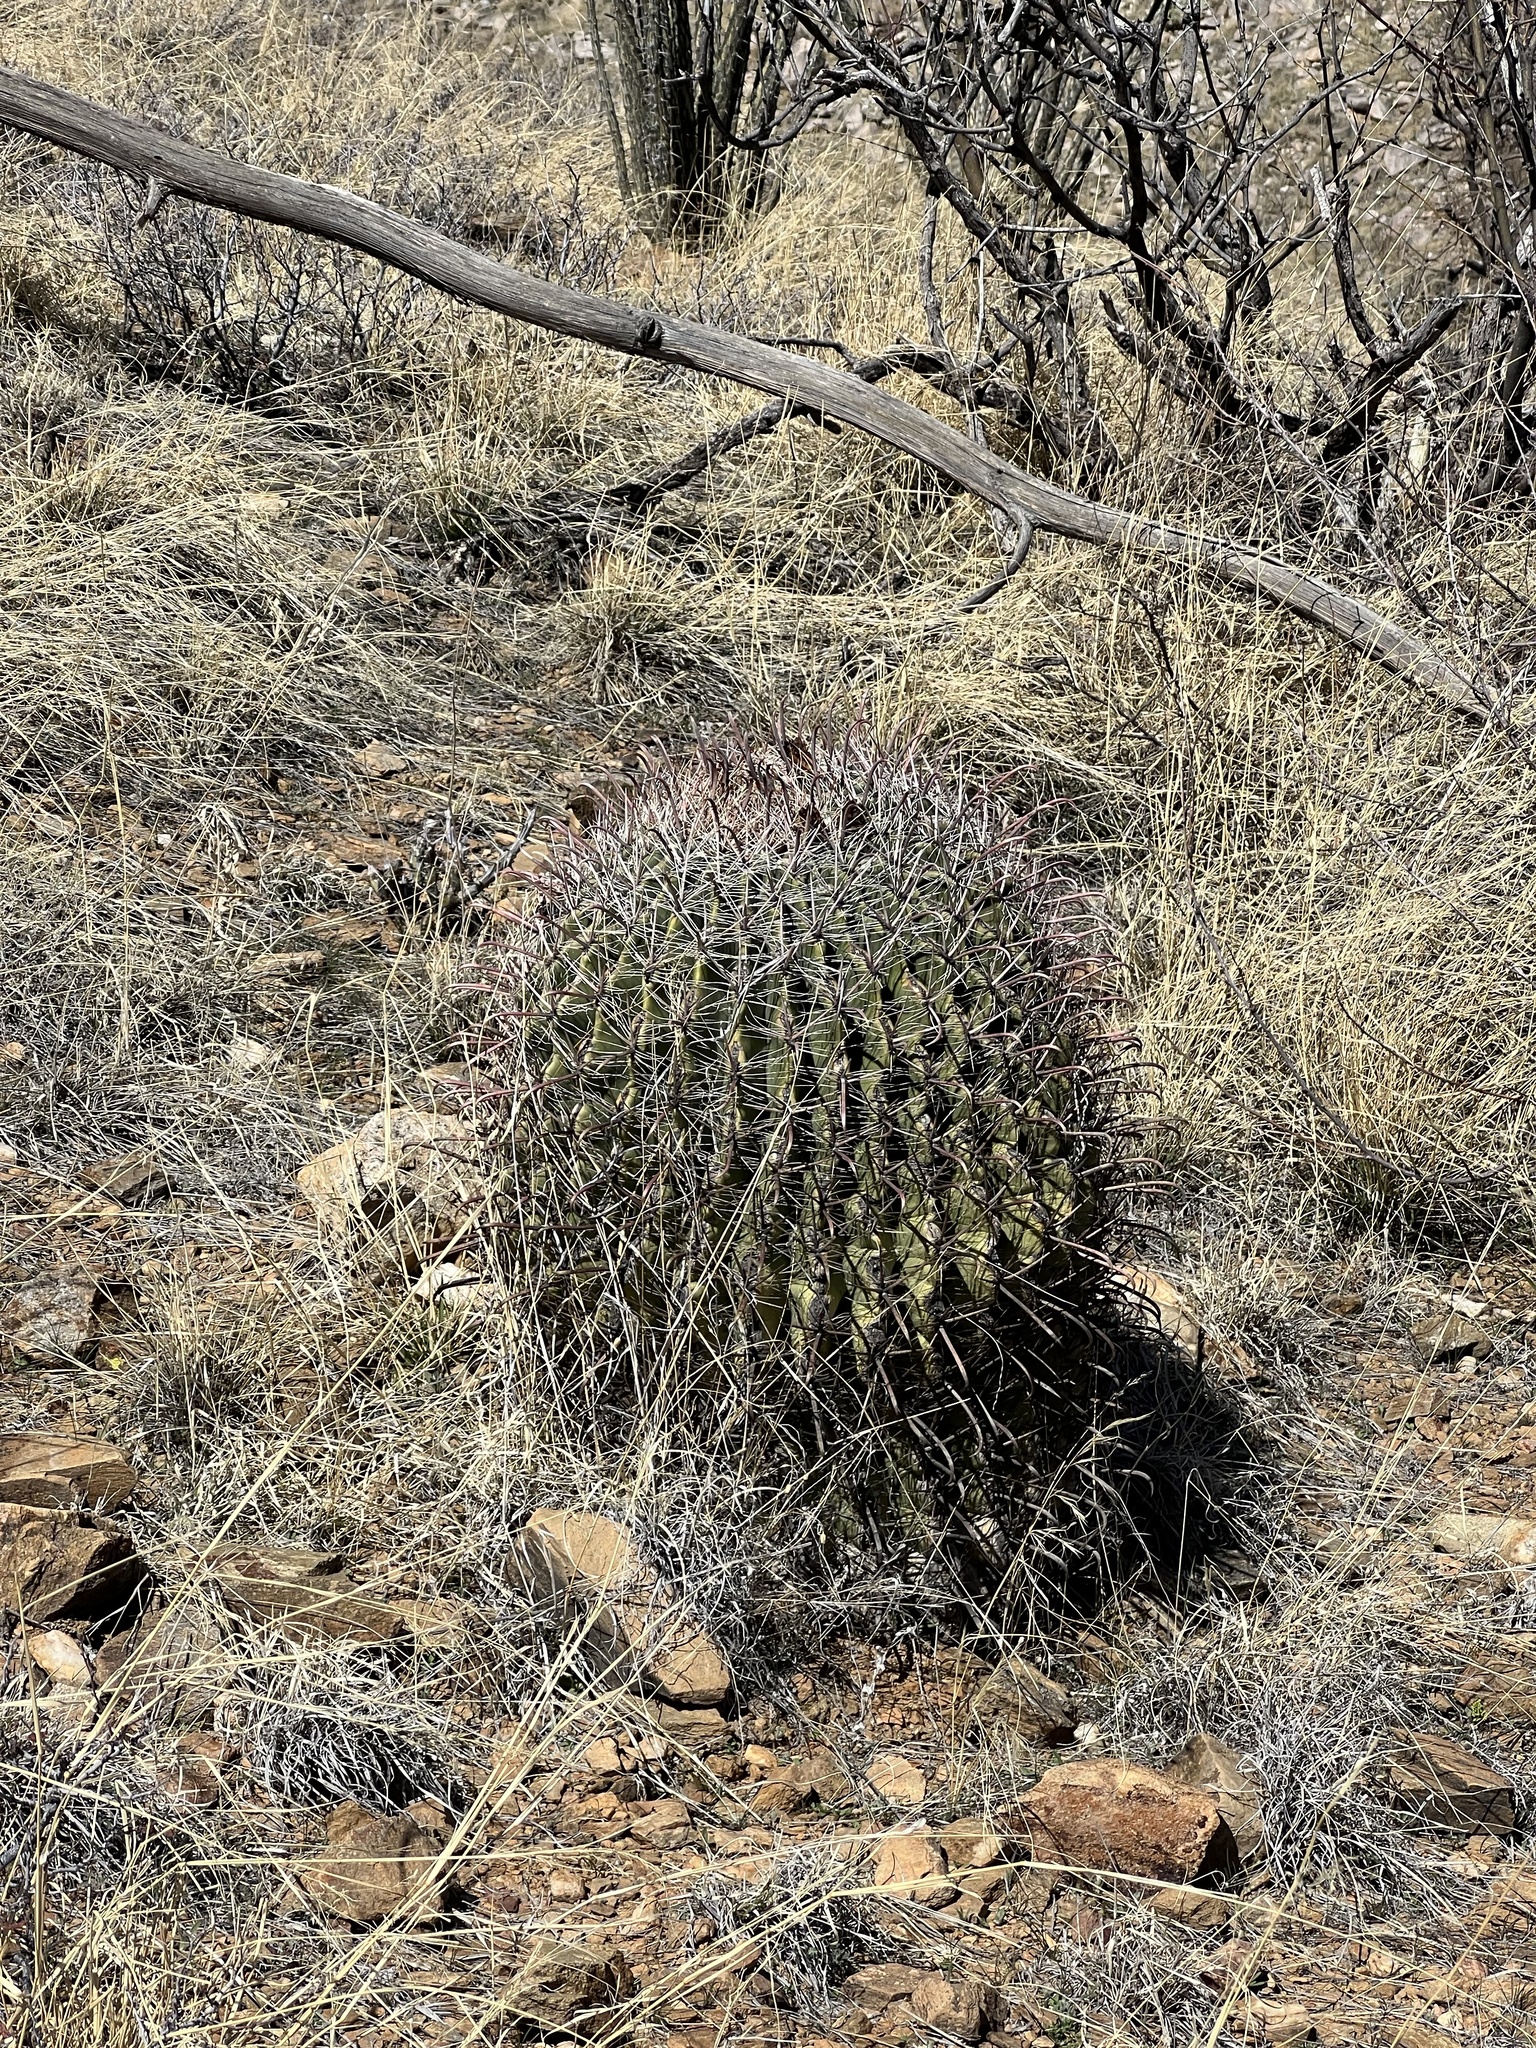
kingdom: Plantae
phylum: Tracheophyta
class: Magnoliopsida
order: Caryophyllales
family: Cactaceae
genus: Ferocactus
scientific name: Ferocactus wislizeni
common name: Candy barrel cactus
